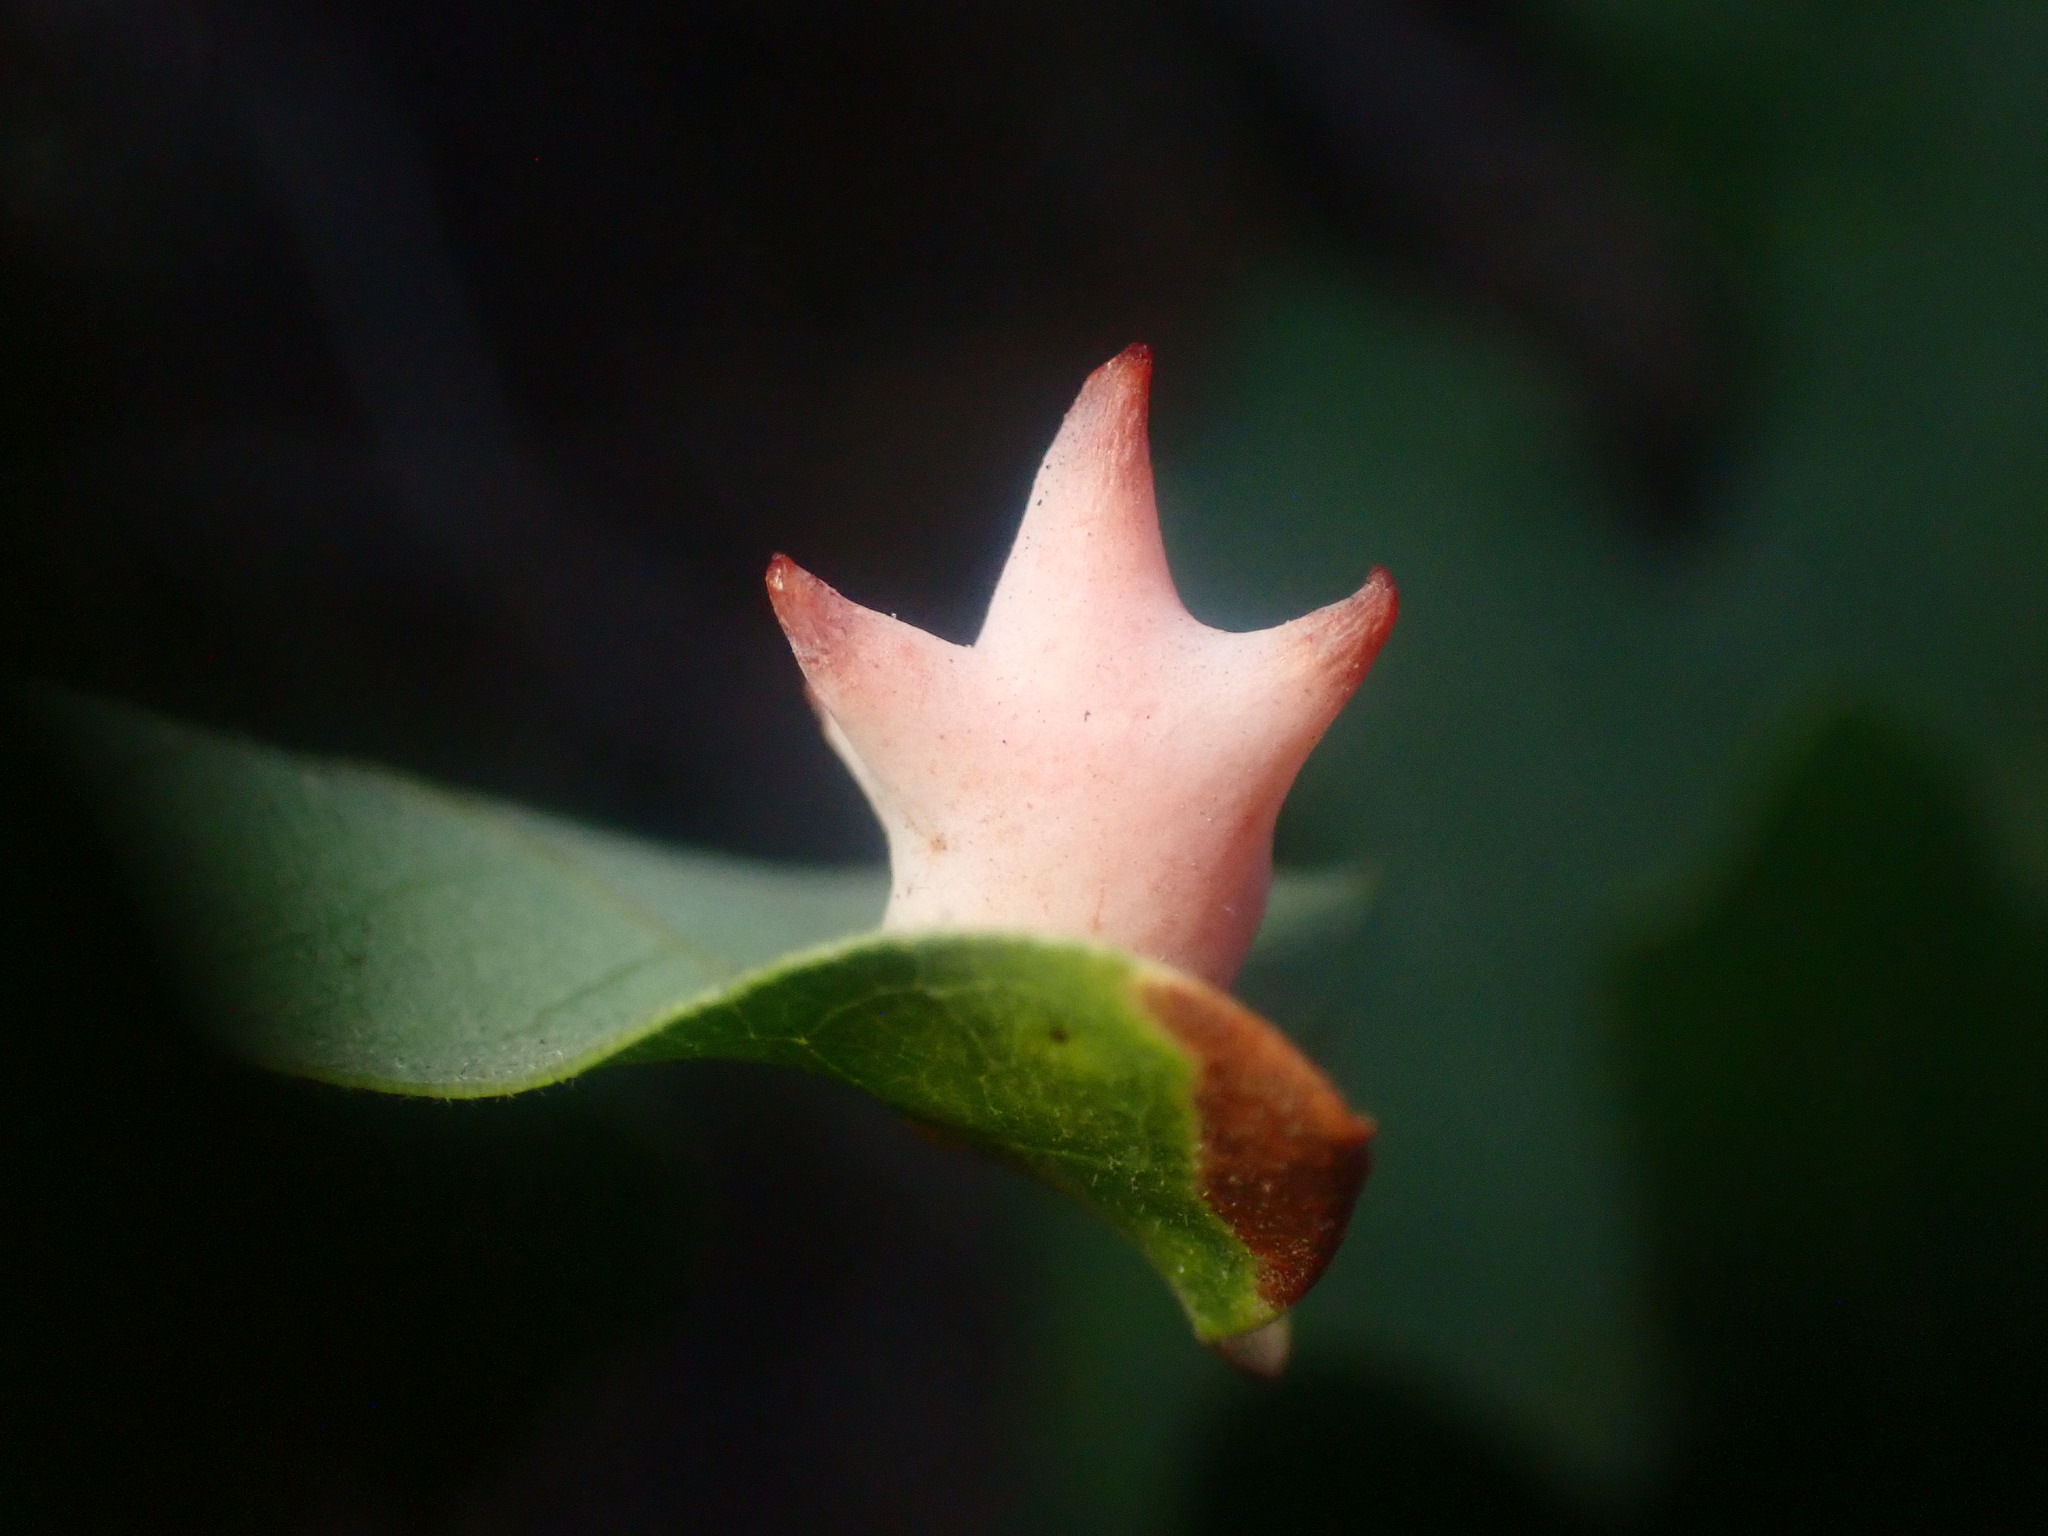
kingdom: Animalia
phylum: Arthropoda
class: Insecta
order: Hymenoptera
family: Cynipidae
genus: Cynips
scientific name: Cynips douglasi
